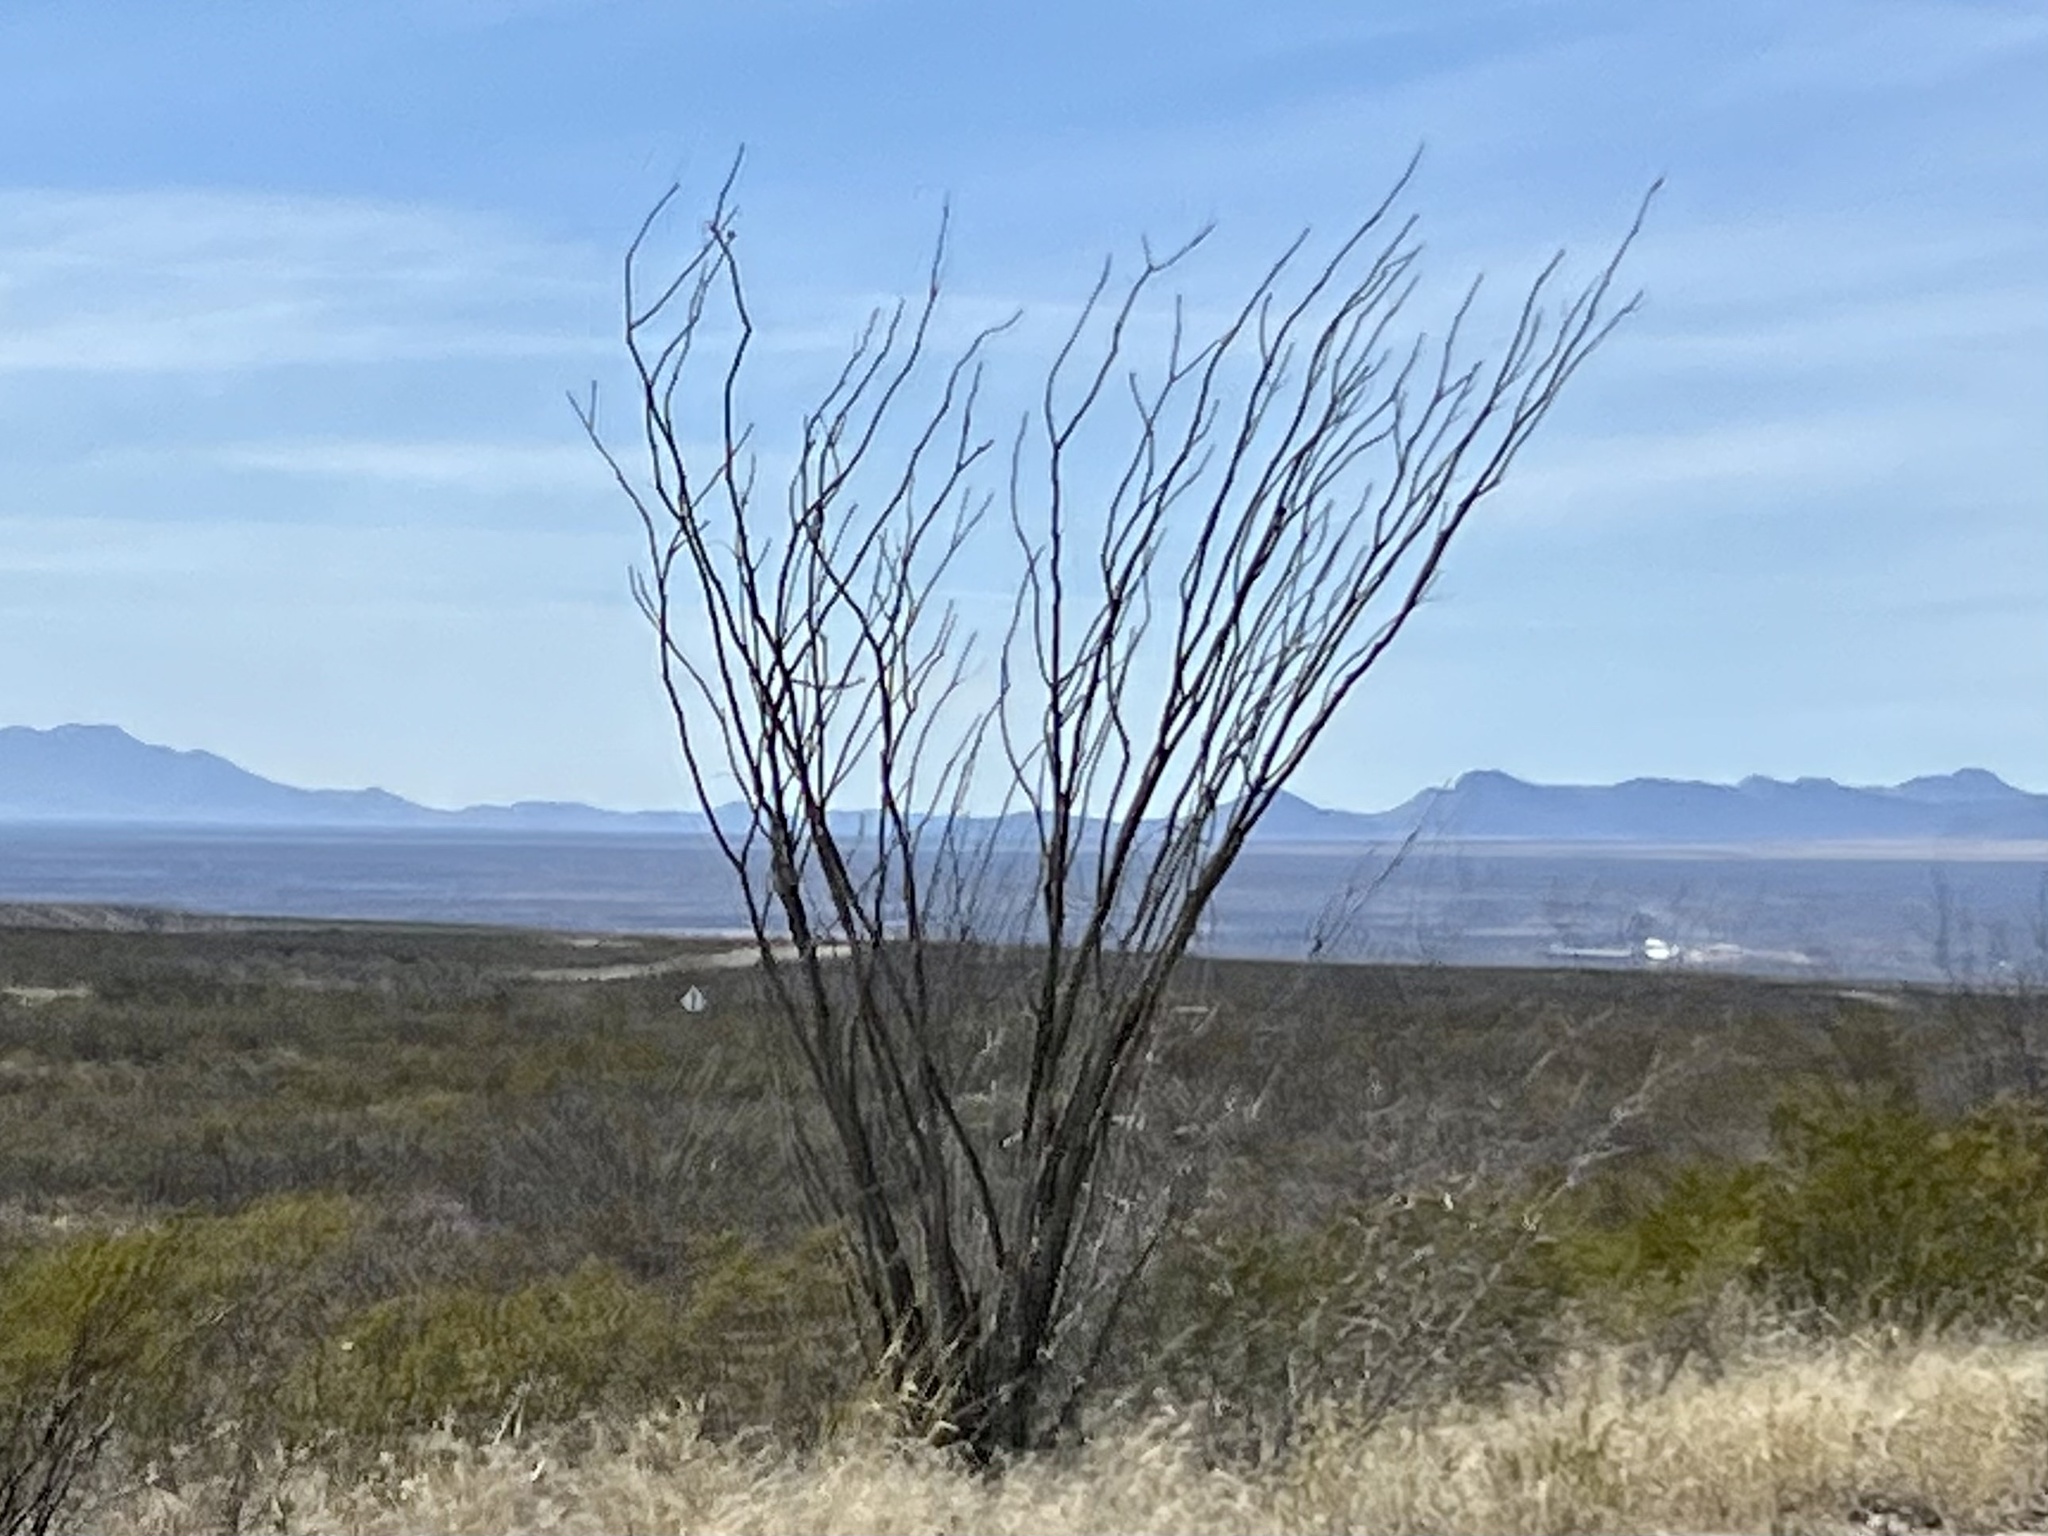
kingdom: Plantae
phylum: Tracheophyta
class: Magnoliopsida
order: Ericales
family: Fouquieriaceae
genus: Fouquieria
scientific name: Fouquieria splendens
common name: Vine-cactus
